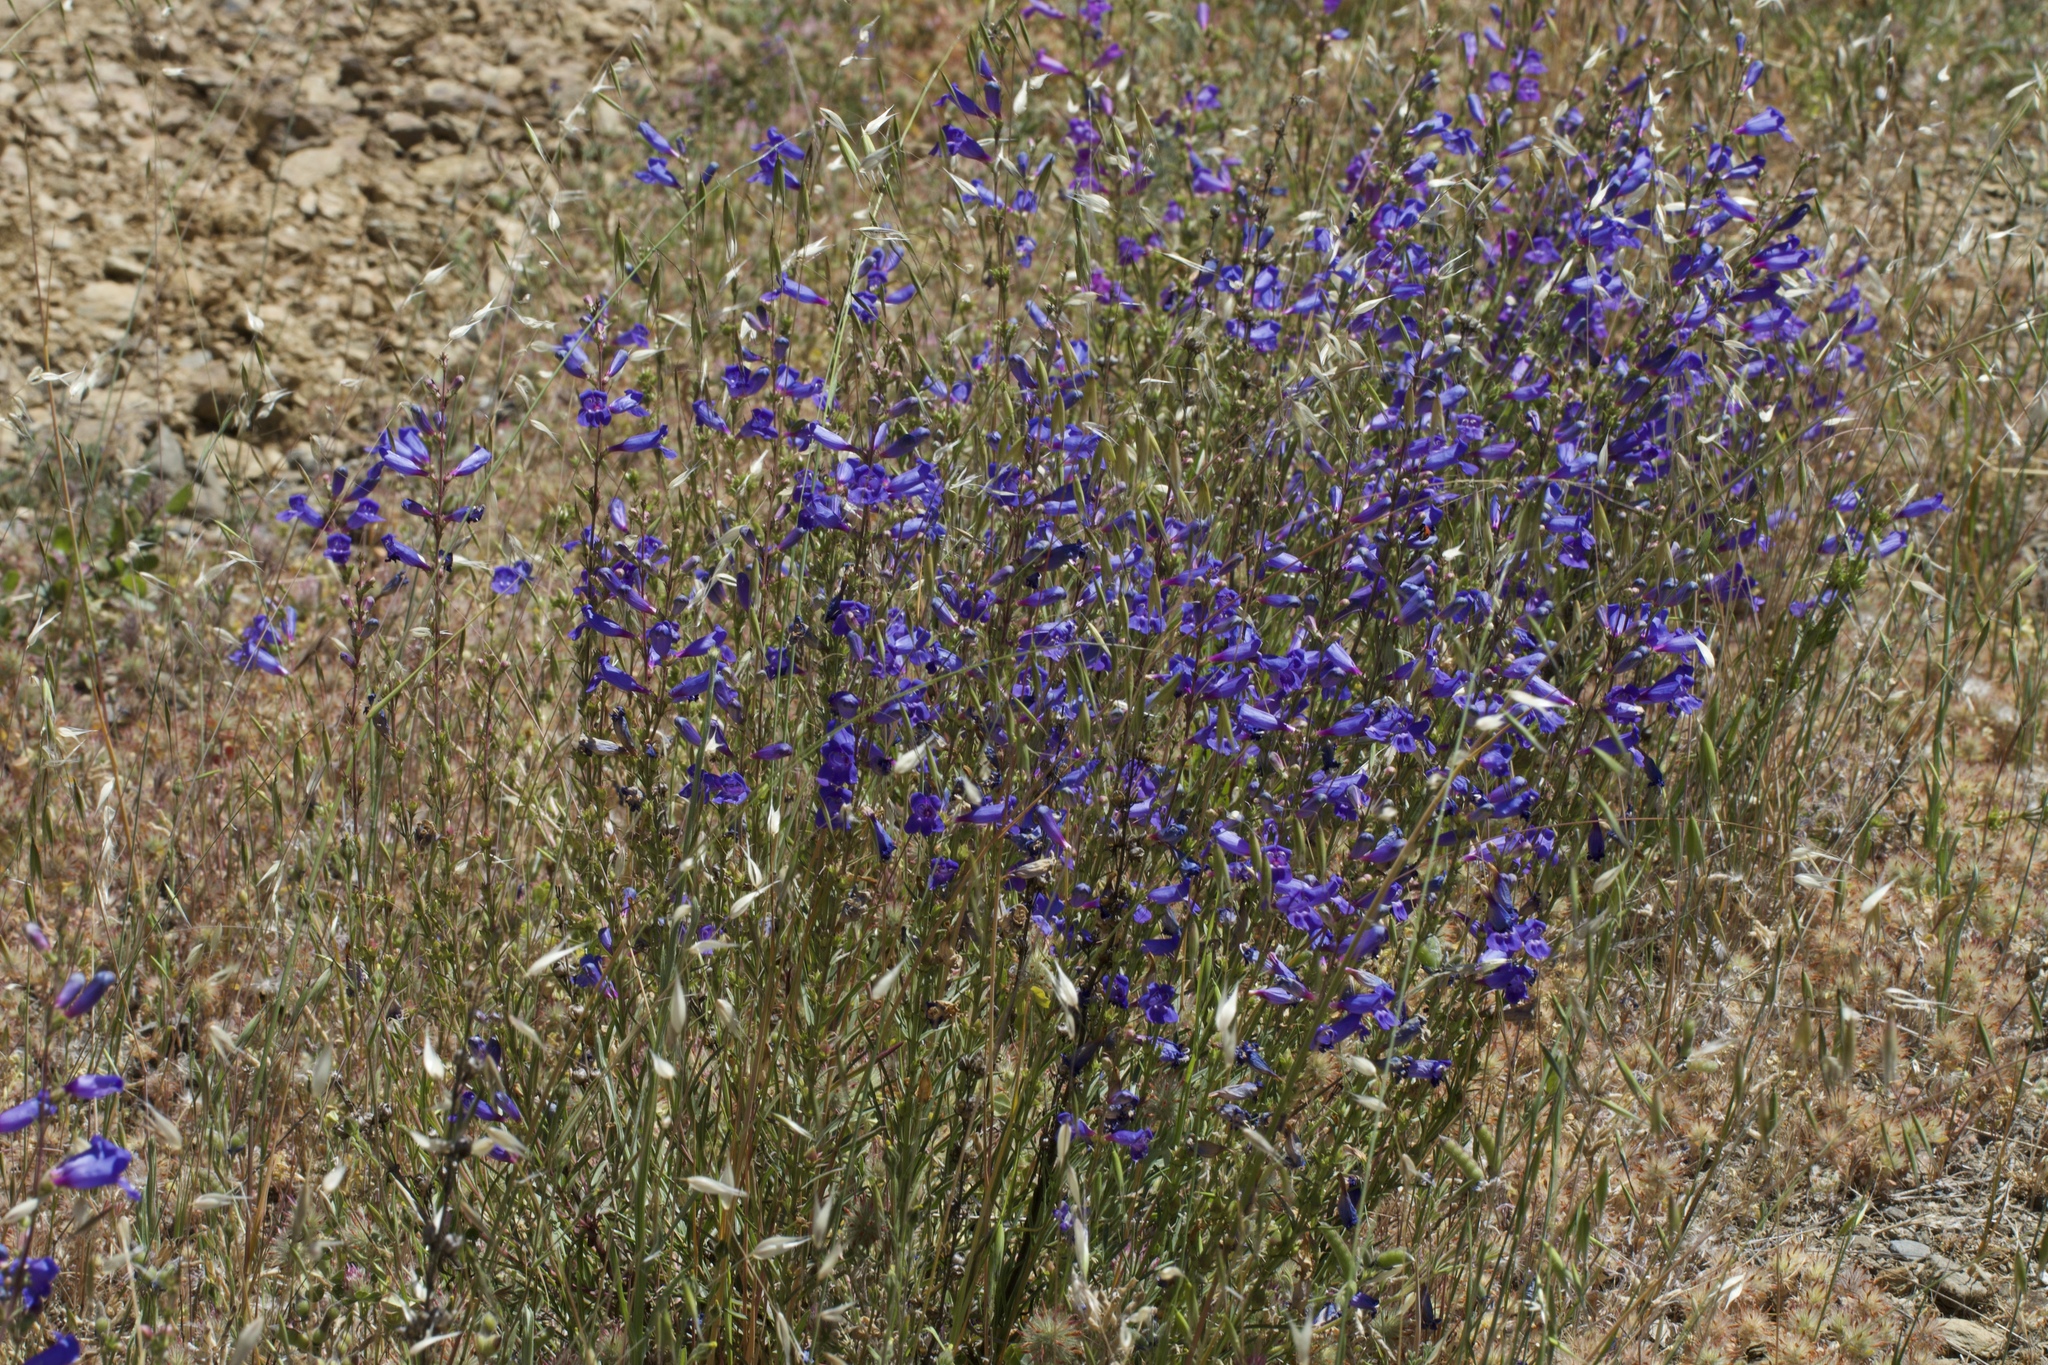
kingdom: Plantae
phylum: Tracheophyta
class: Magnoliopsida
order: Lamiales
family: Plantaginaceae
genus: Penstemon
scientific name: Penstemon heterophyllus
